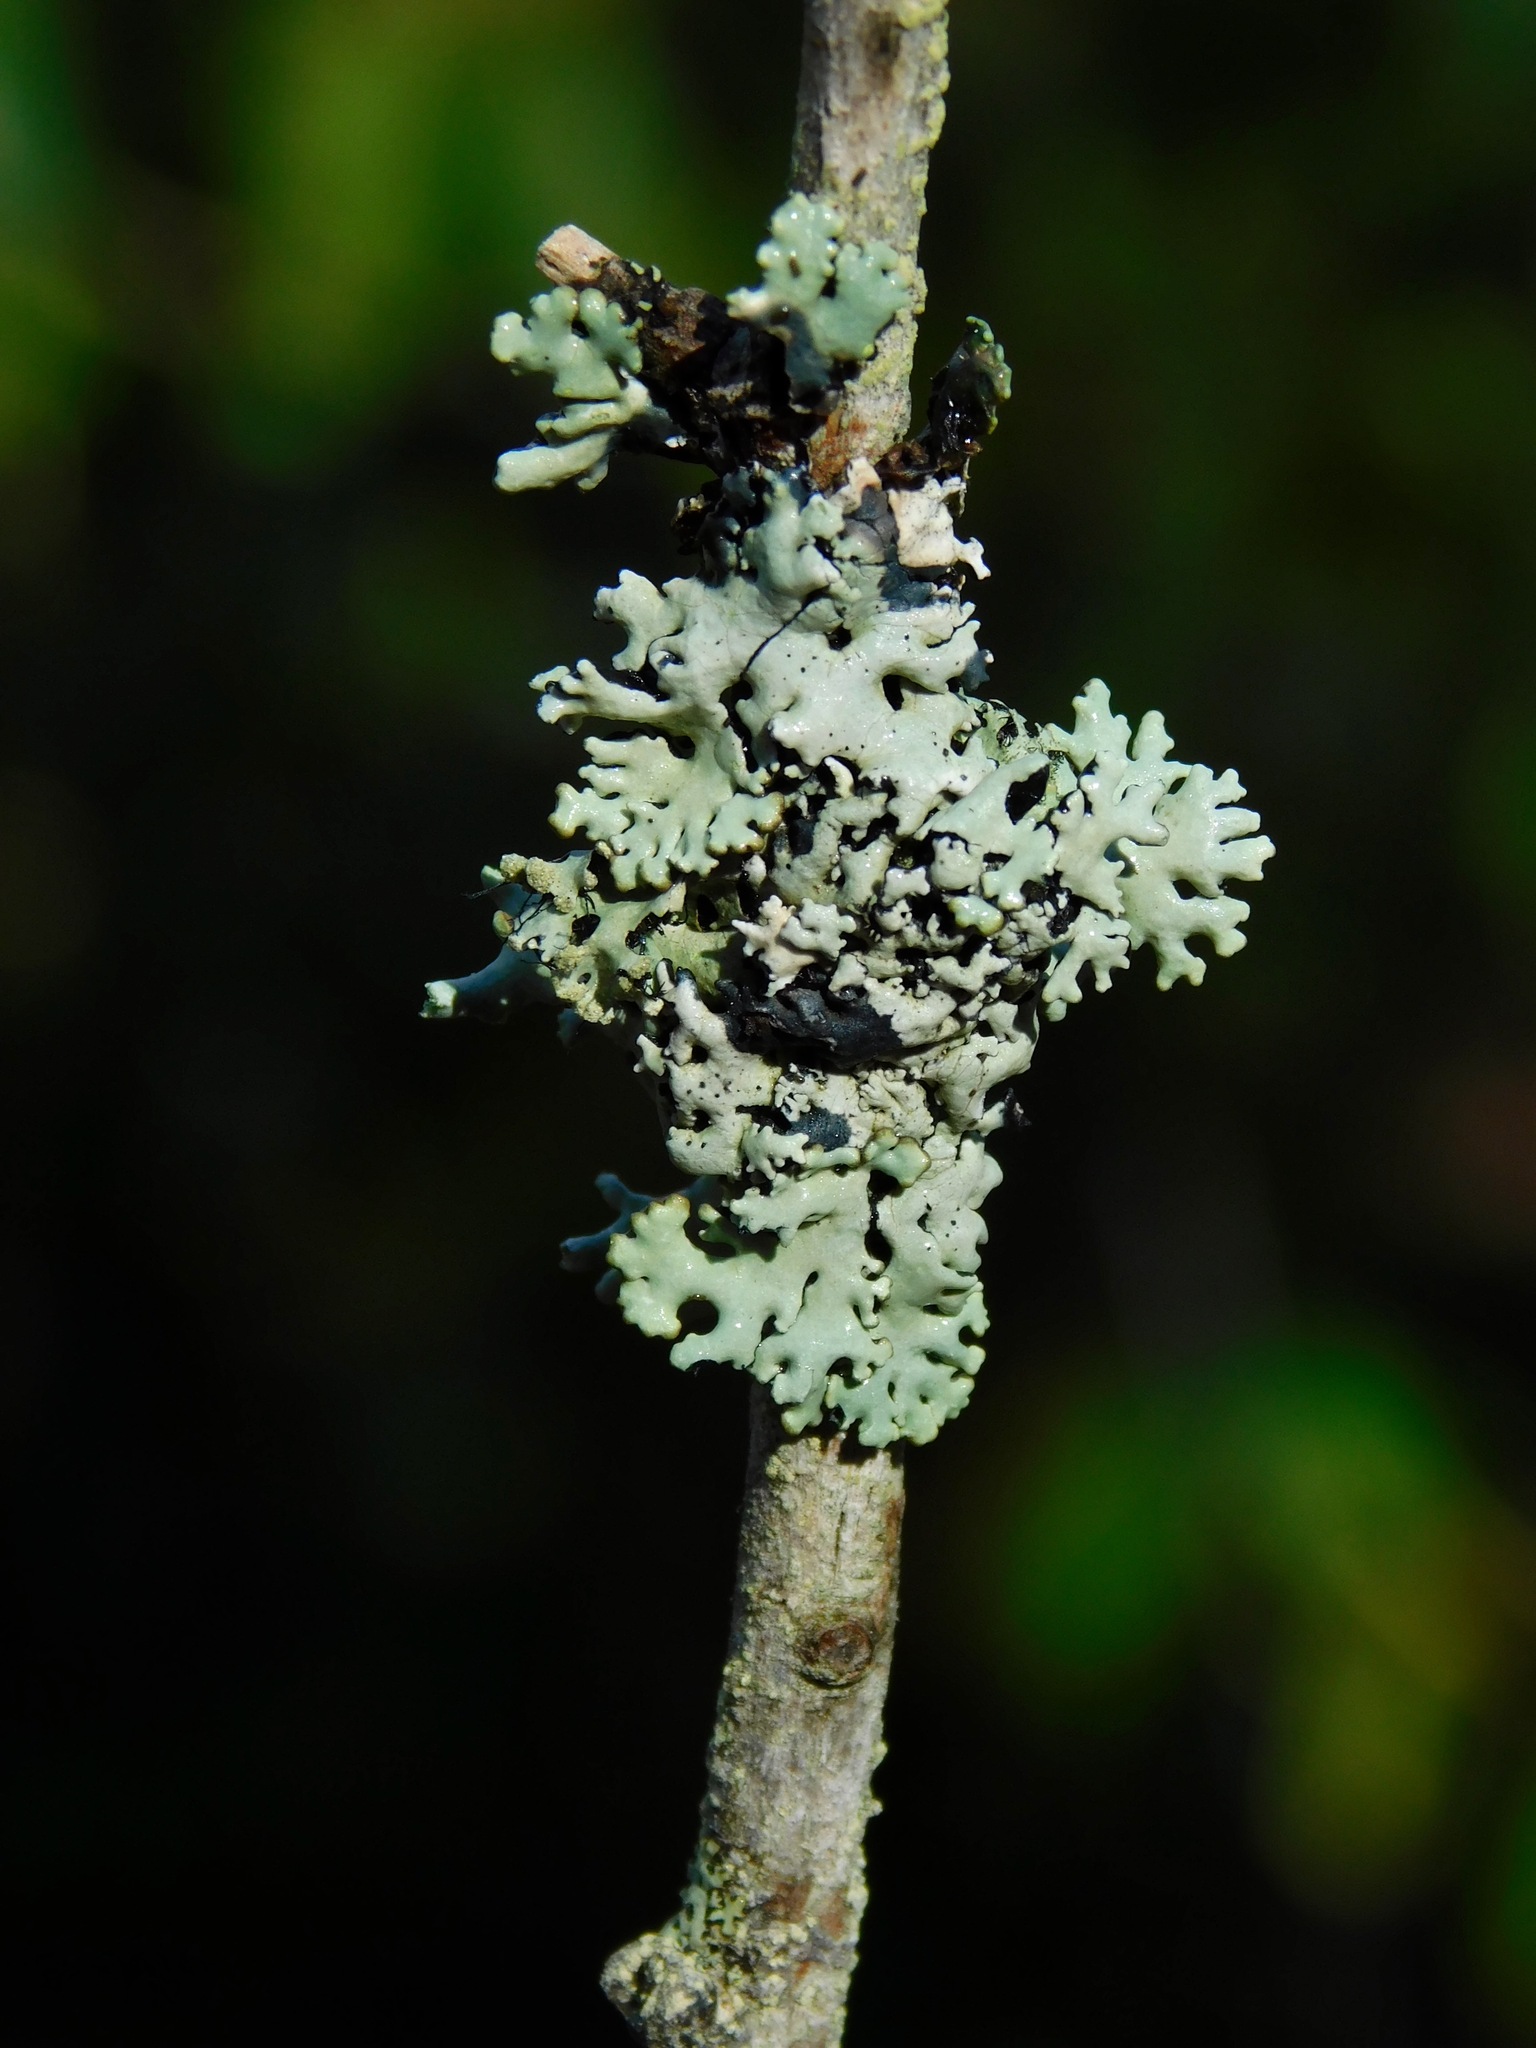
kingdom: Fungi
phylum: Ascomycota
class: Lecanoromycetes
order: Lecanorales
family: Parmeliaceae
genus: Hypogymnia
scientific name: Hypogymnia physodes
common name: Dark crottle
